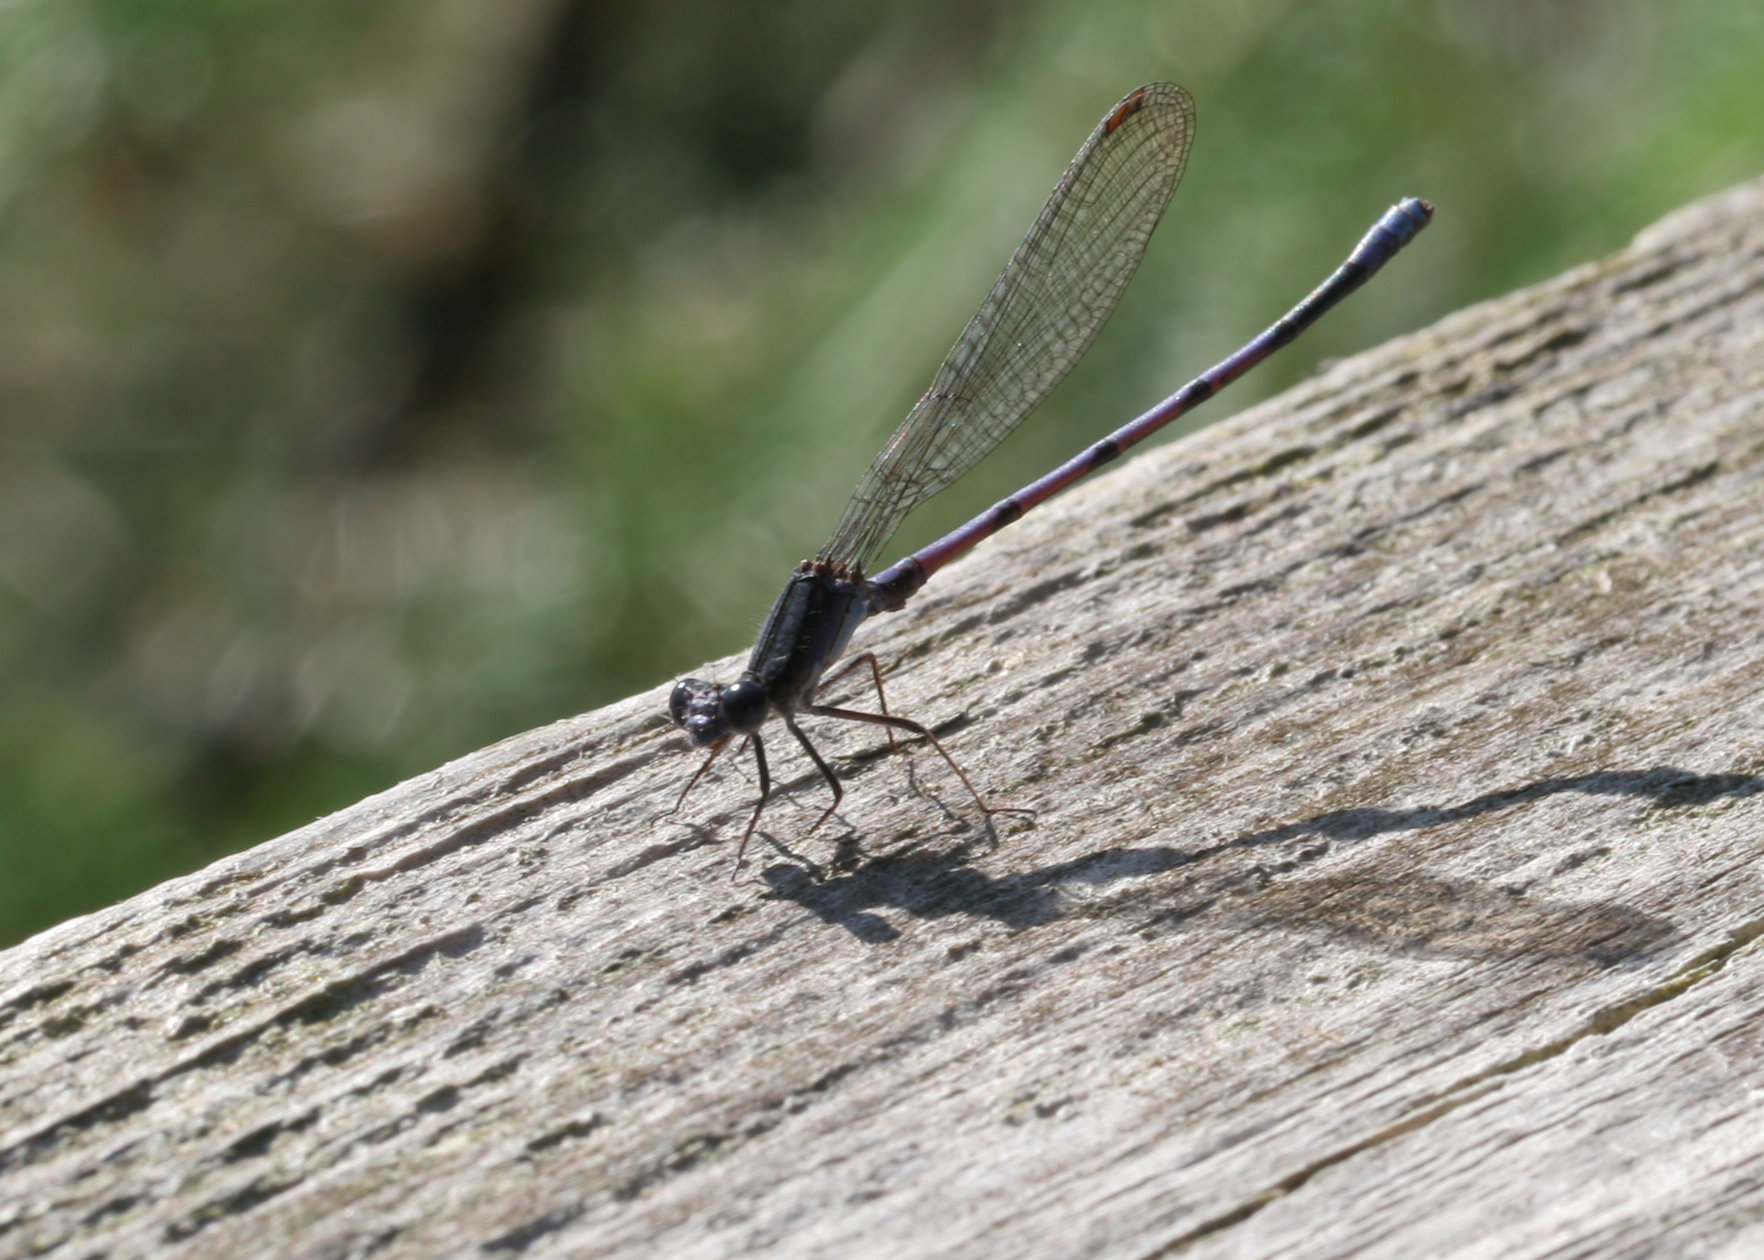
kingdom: Animalia
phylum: Arthropoda
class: Insecta
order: Odonata
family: Coenagrionidae
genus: Argia
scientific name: Argia fumipennis
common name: Variable dancer
